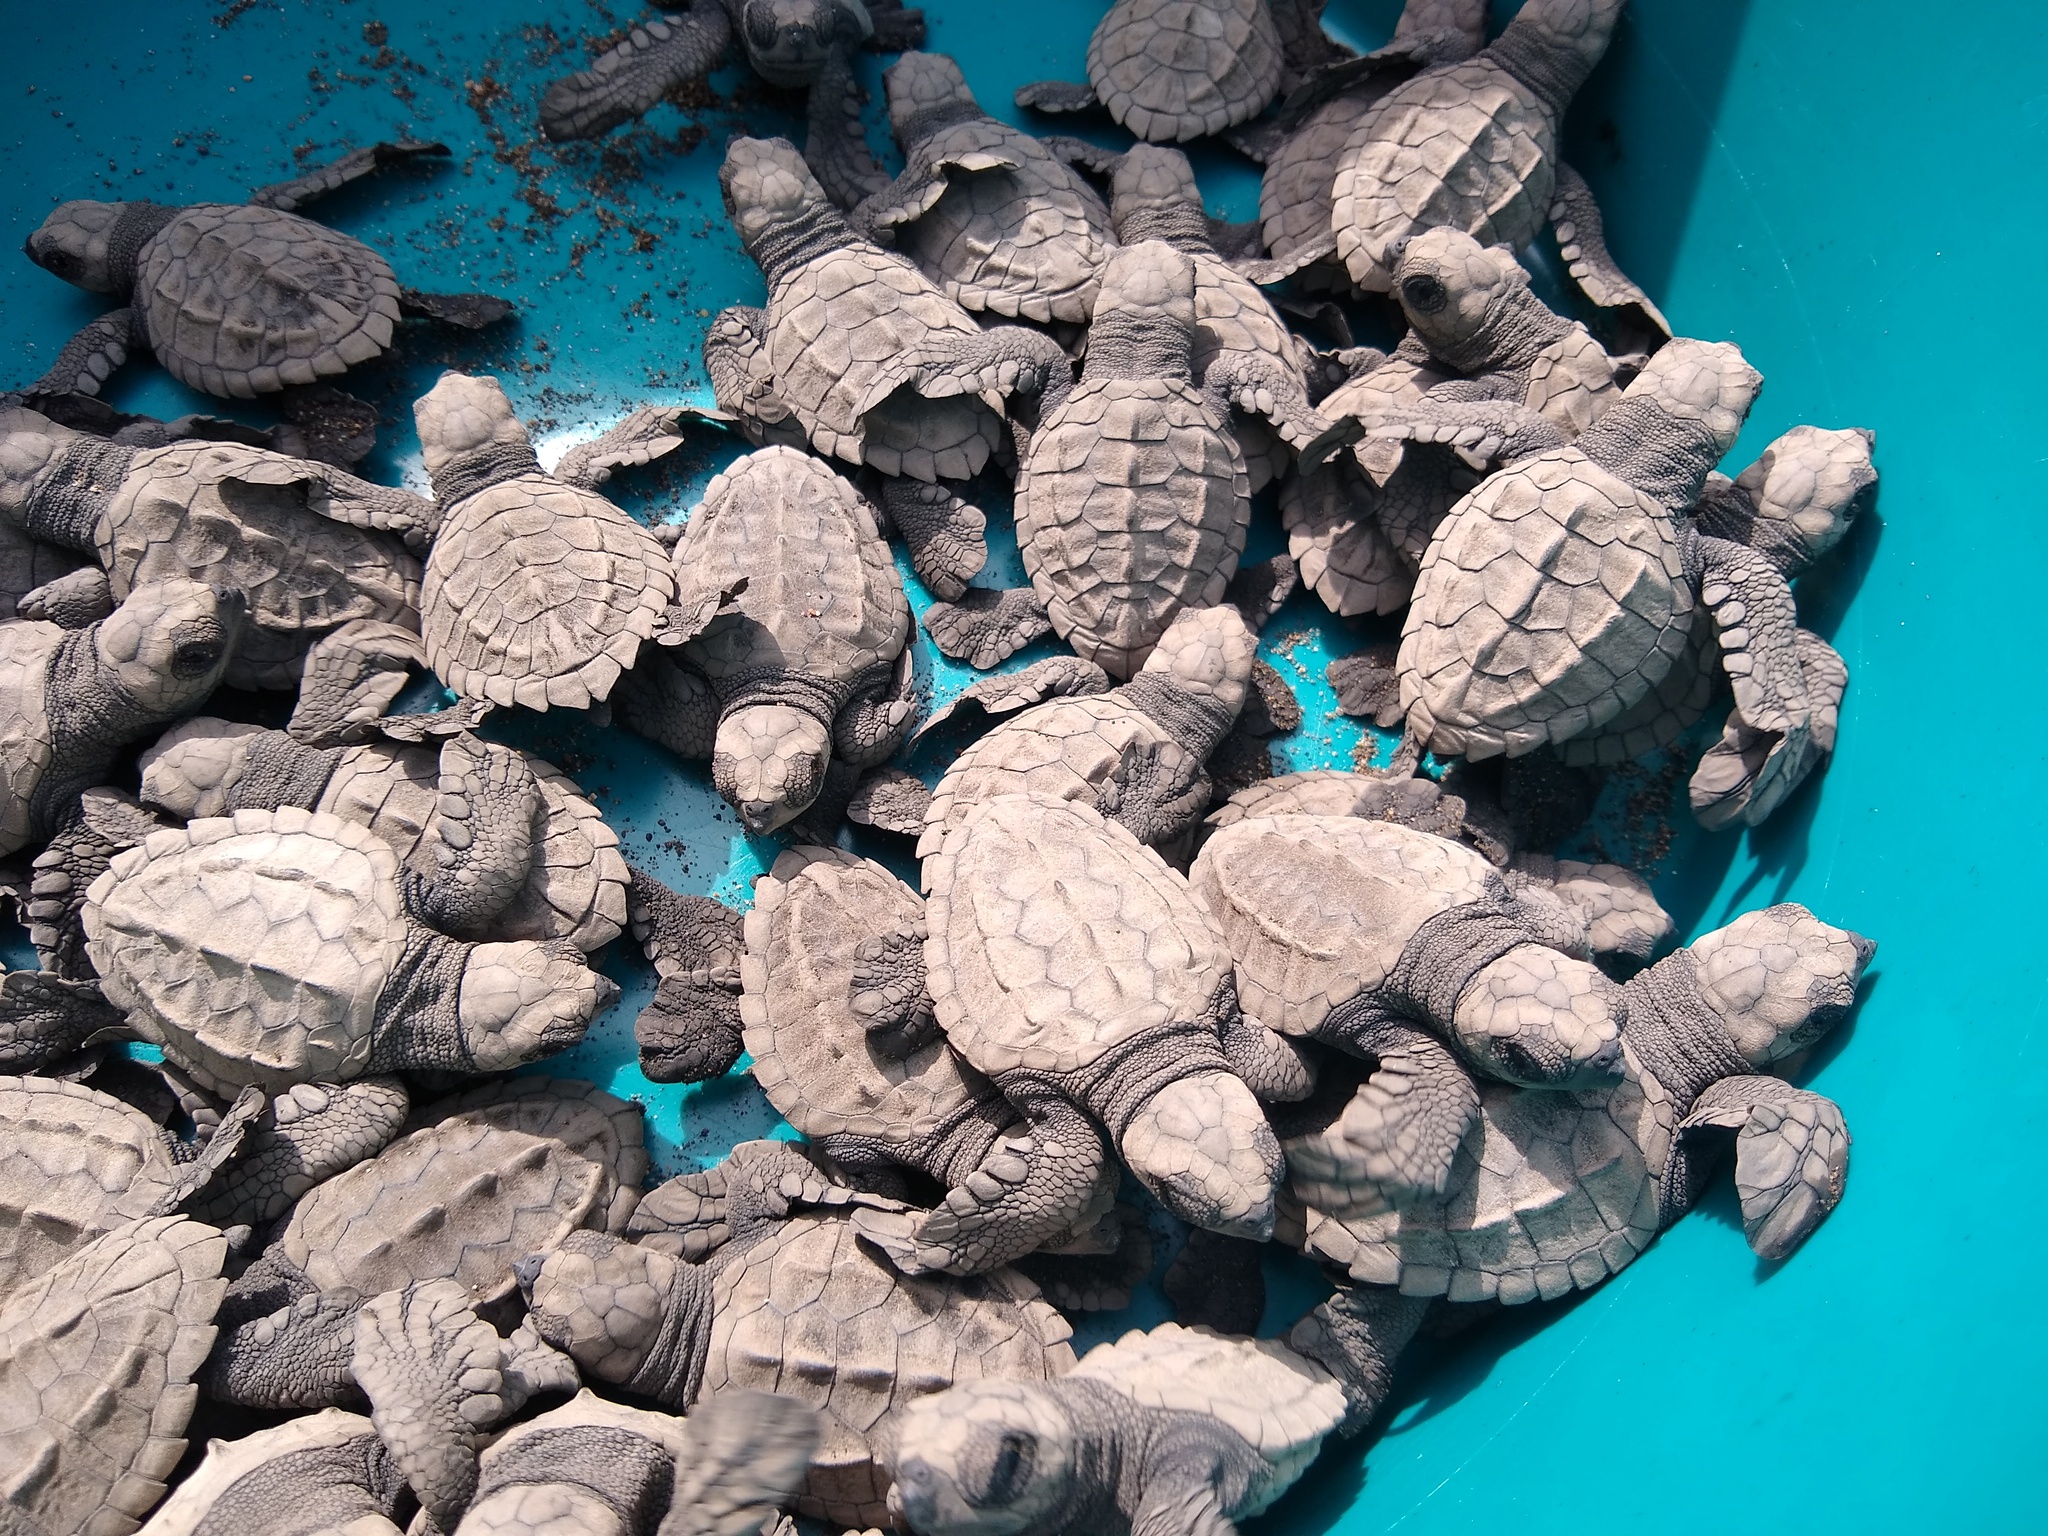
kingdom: Animalia
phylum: Chordata
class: Testudines
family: Cheloniidae
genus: Lepidochelys
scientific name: Lepidochelys olivacea
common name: Olive ridley
